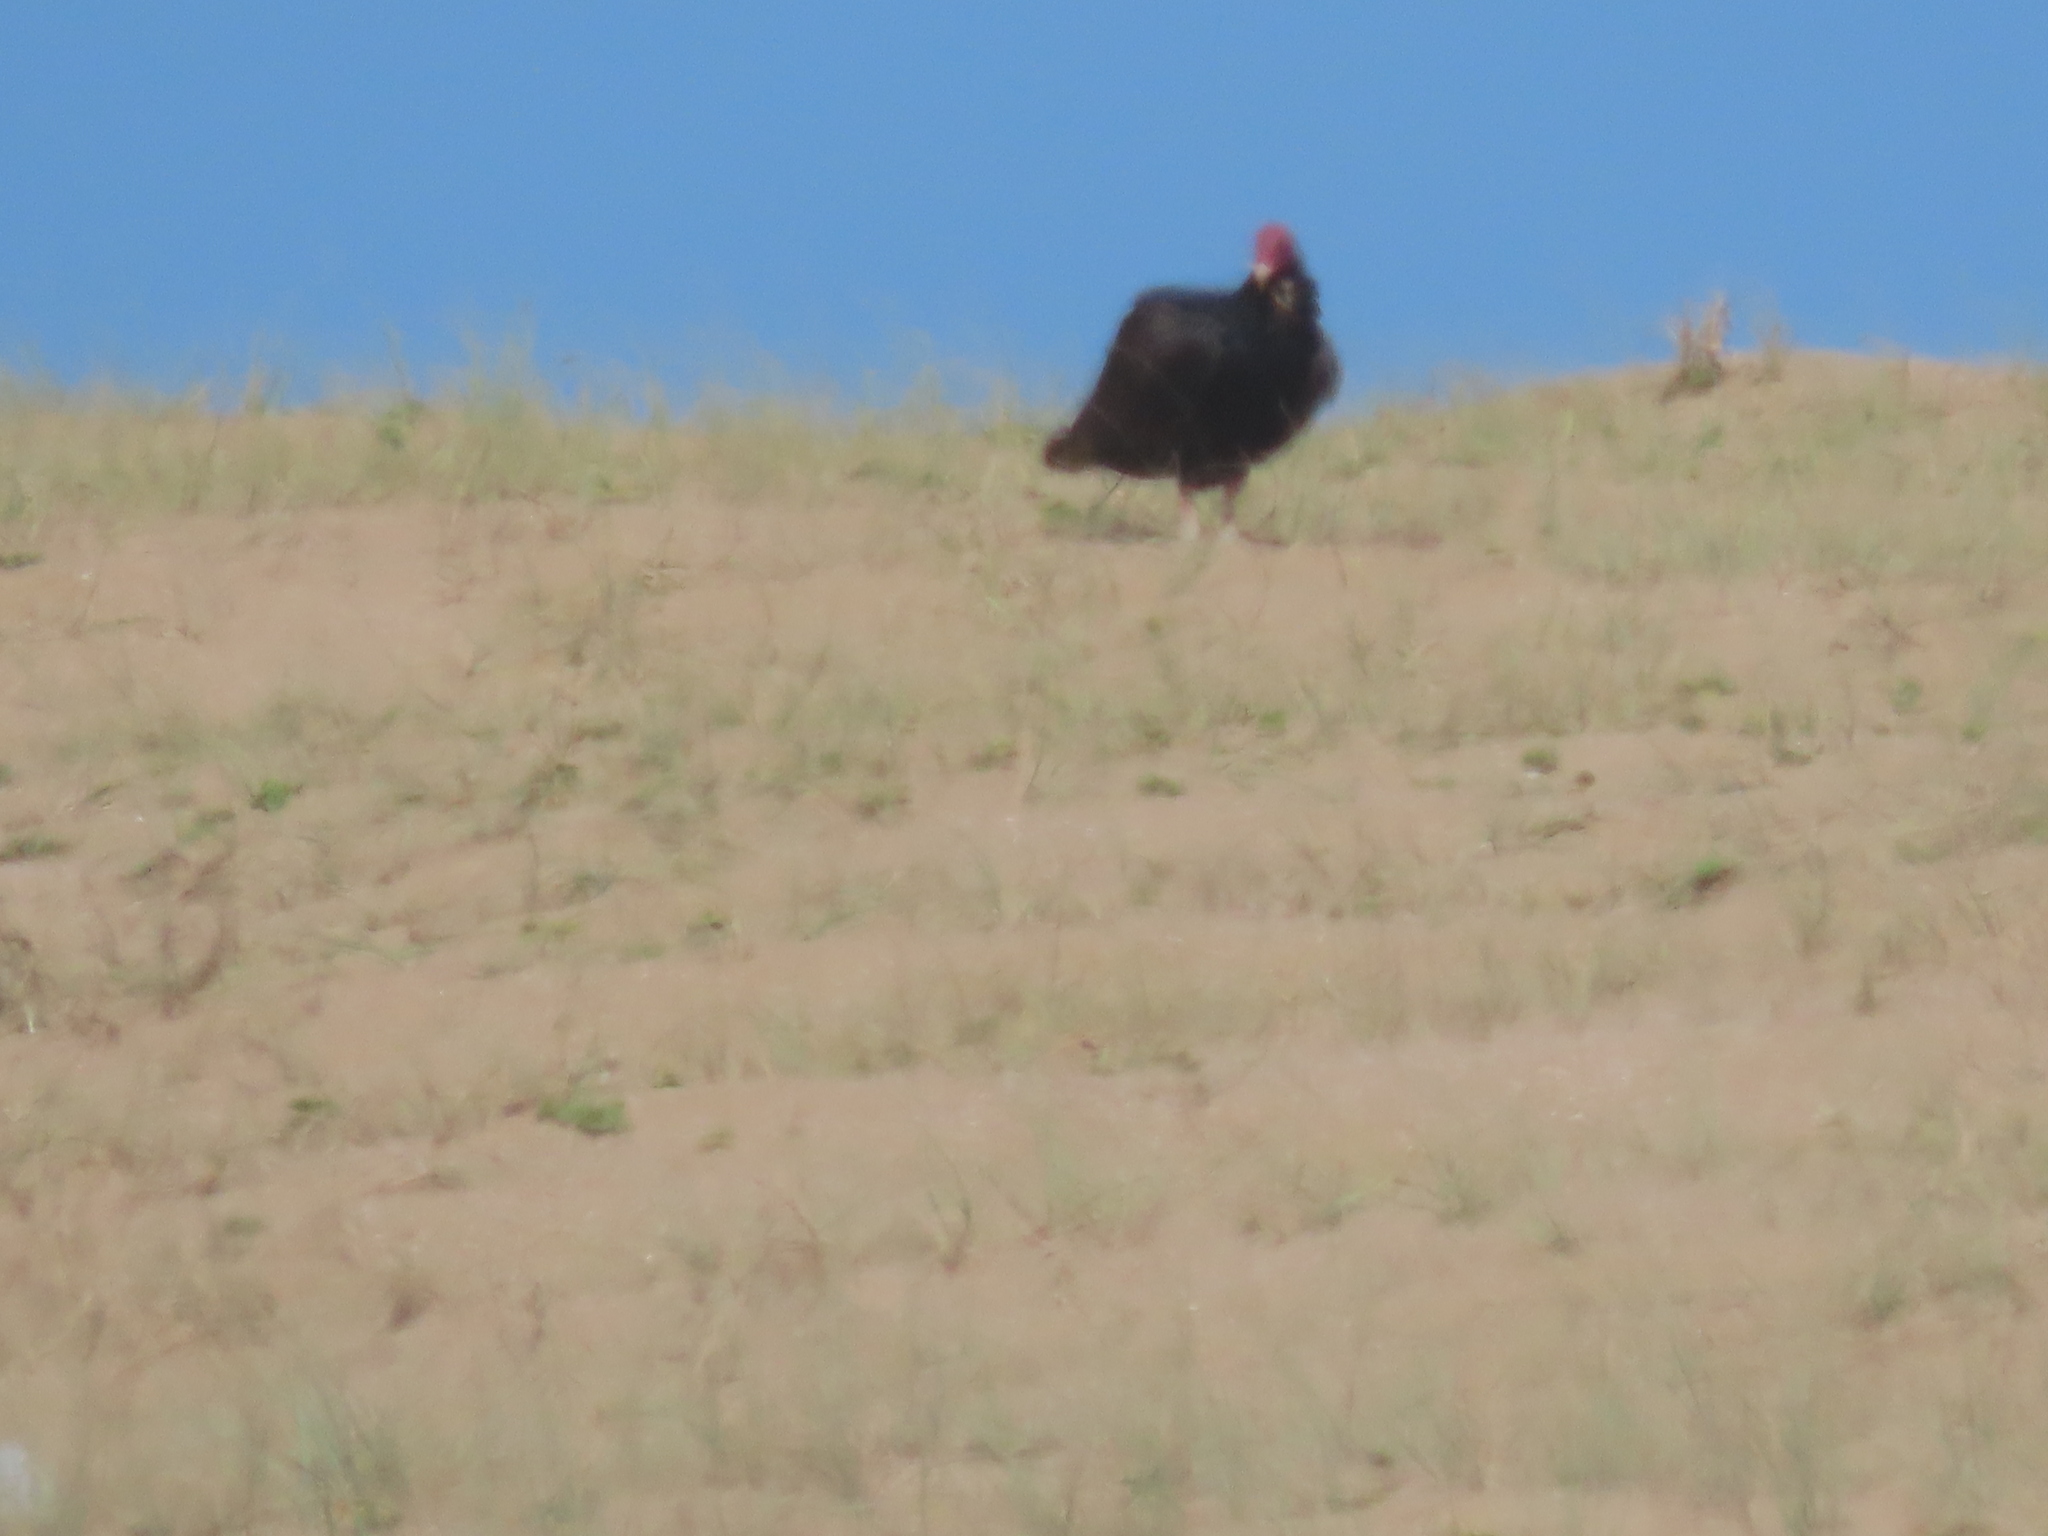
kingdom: Animalia
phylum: Chordata
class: Aves
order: Accipitriformes
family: Cathartidae
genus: Cathartes
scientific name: Cathartes aura
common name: Turkey vulture
